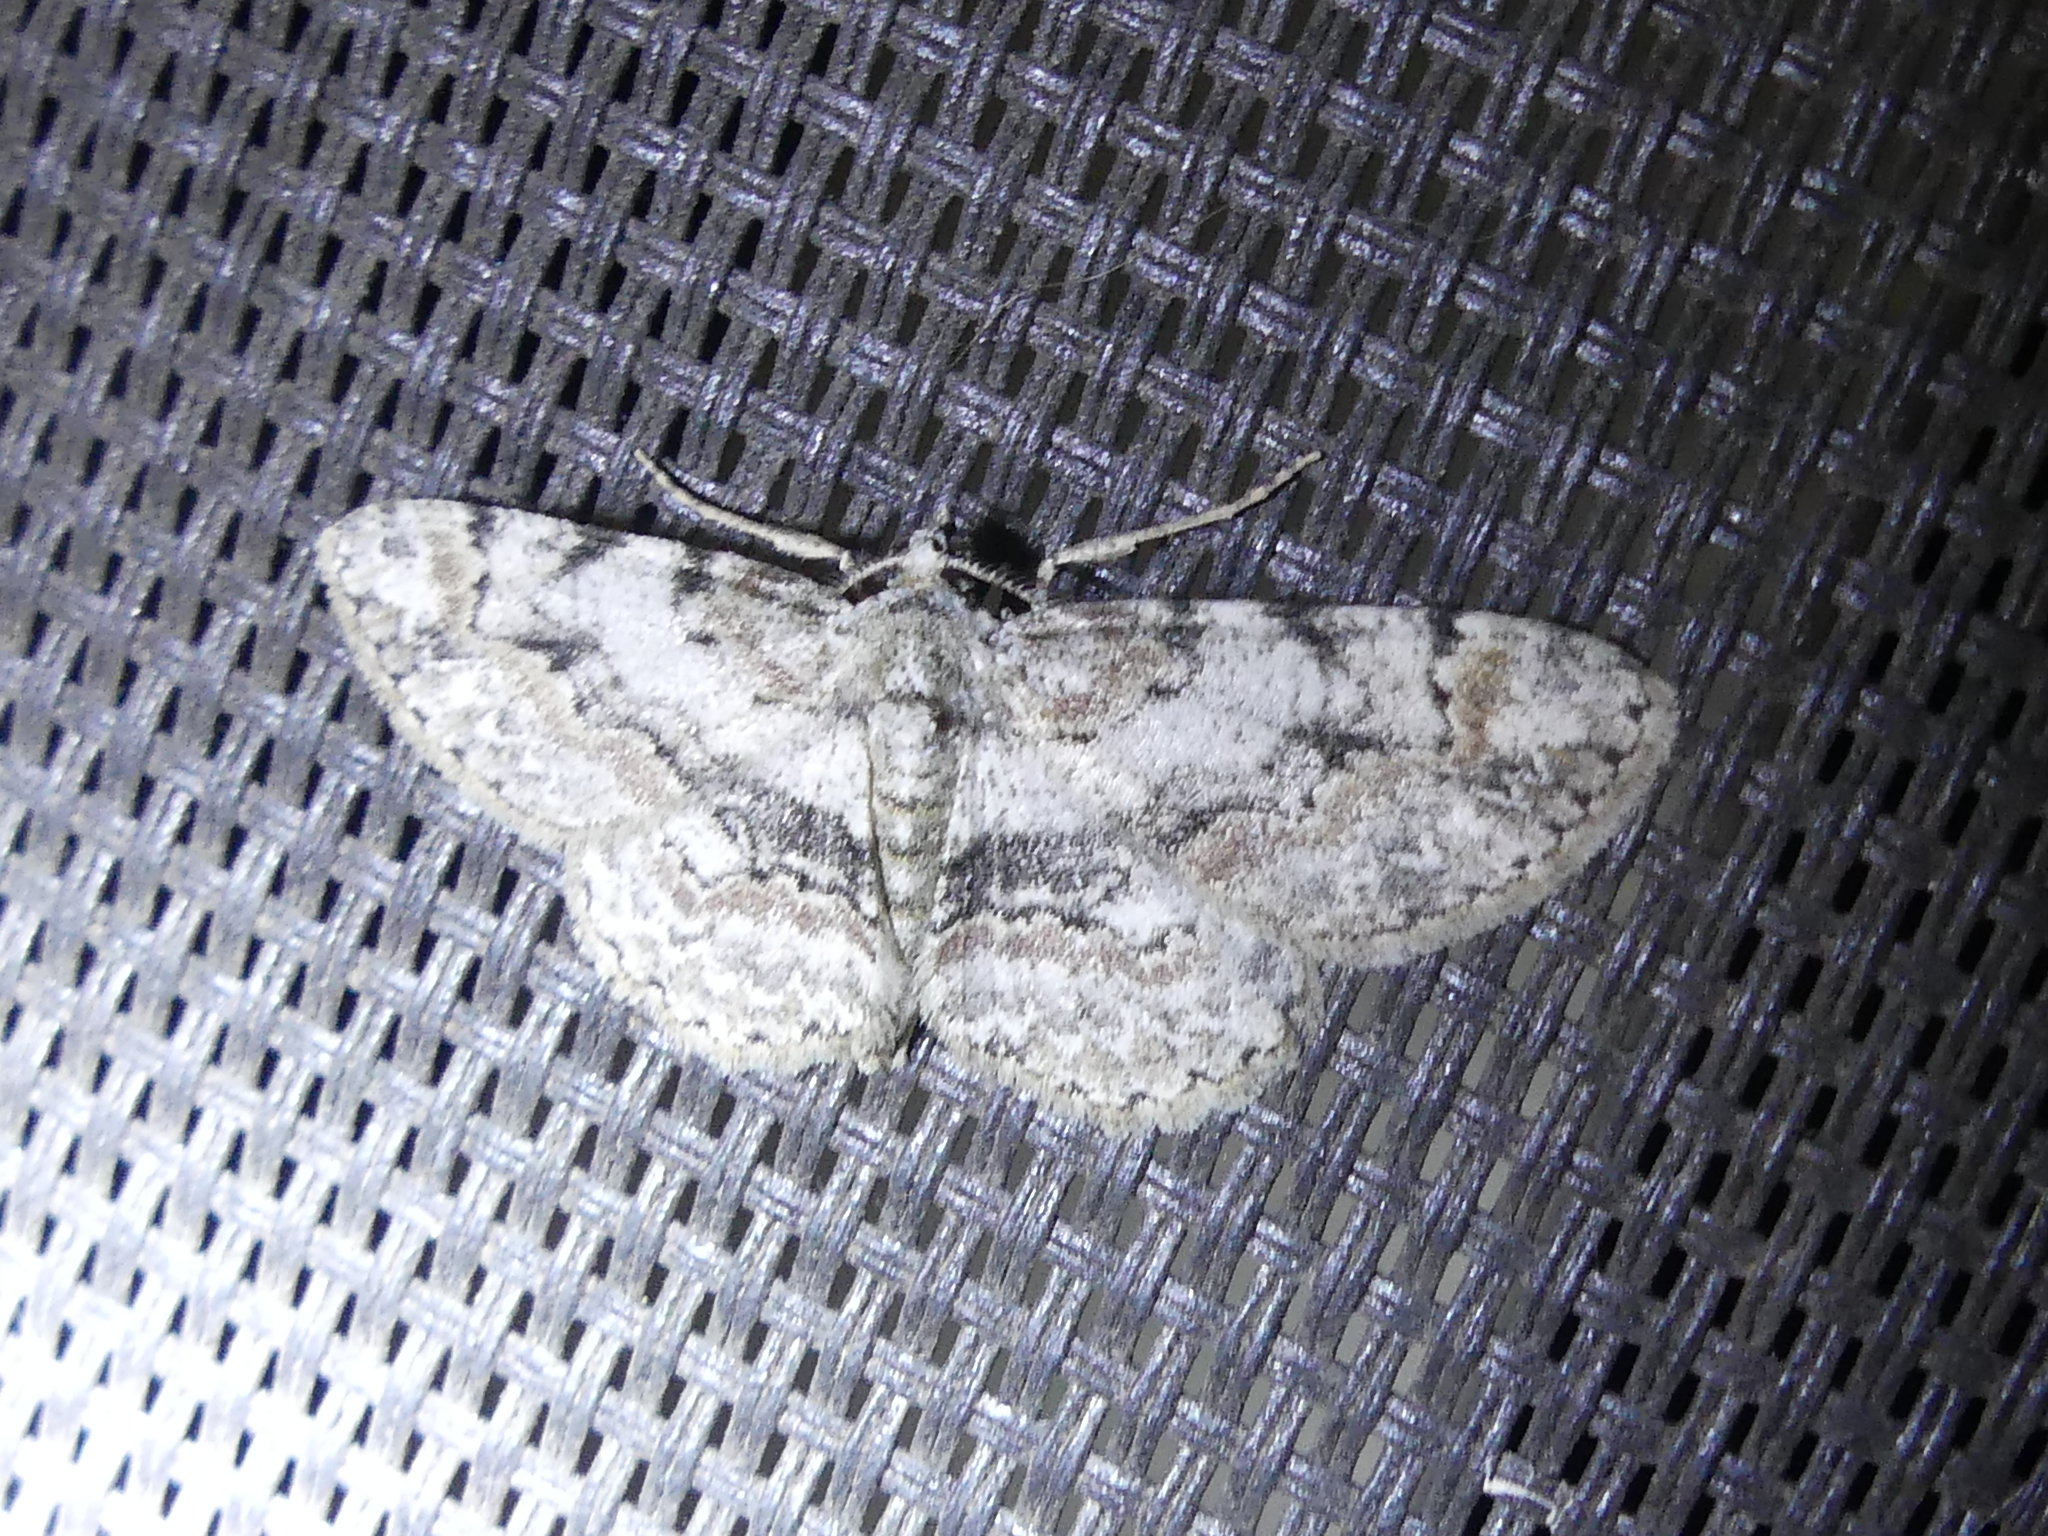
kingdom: Animalia
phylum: Arthropoda
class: Insecta
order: Lepidoptera
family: Geometridae
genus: Iridopsis
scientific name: Iridopsis ephyraria
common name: Pale-winged gray
